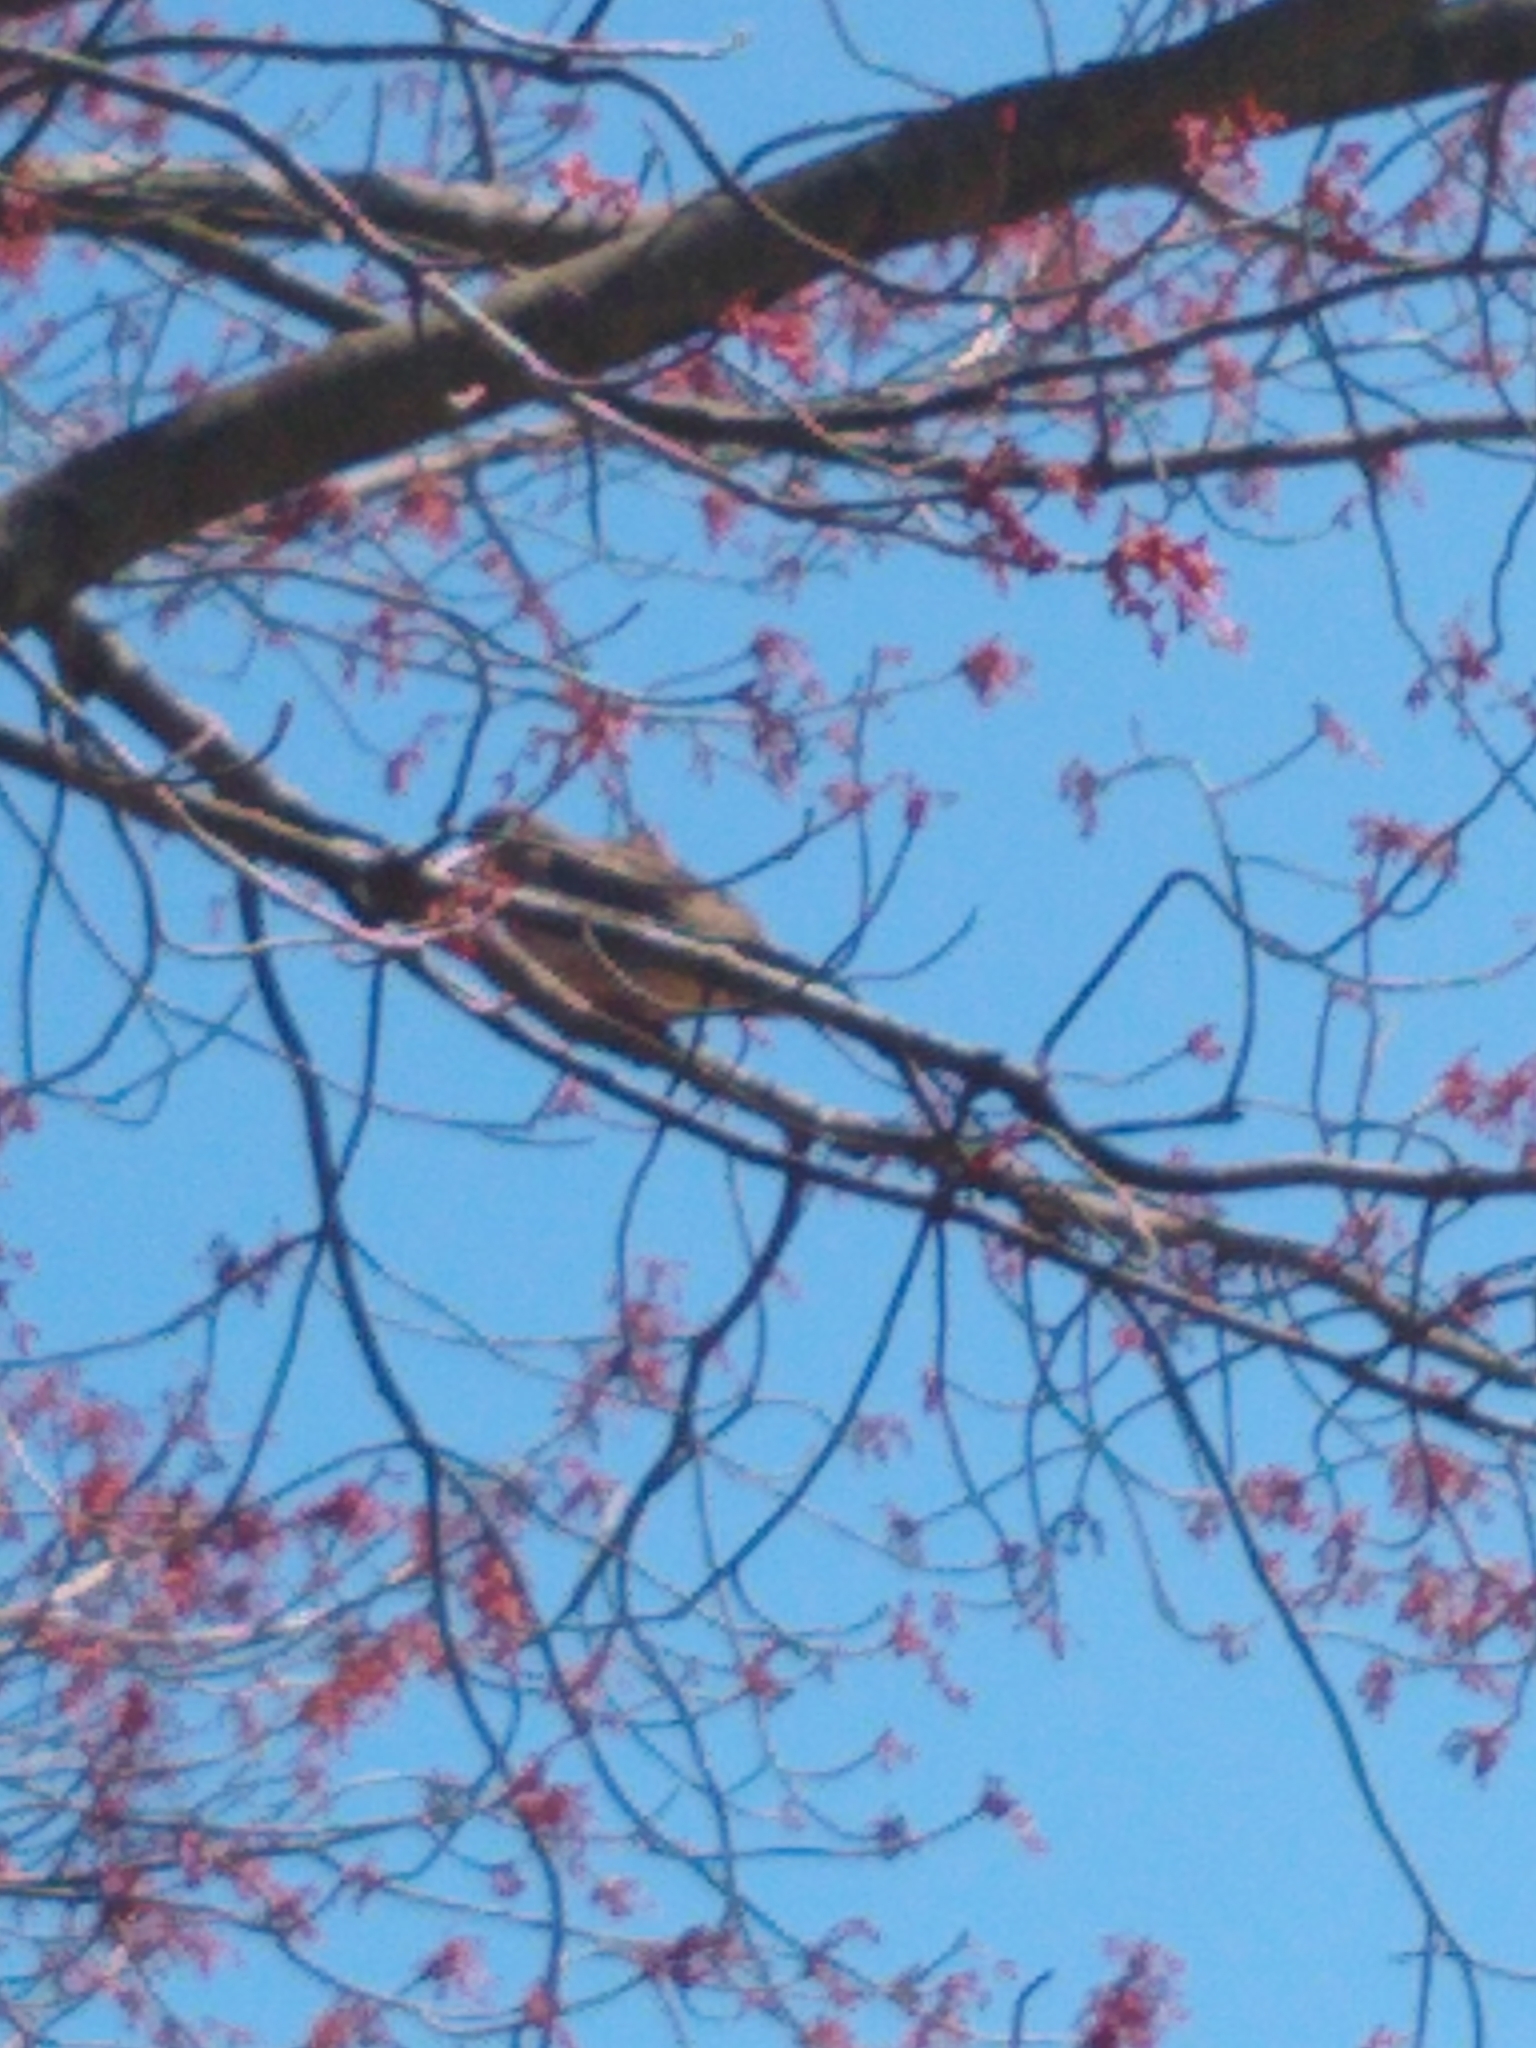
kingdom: Animalia
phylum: Chordata
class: Aves
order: Columbiformes
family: Columbidae
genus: Zenaida
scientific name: Zenaida macroura
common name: Mourning dove
